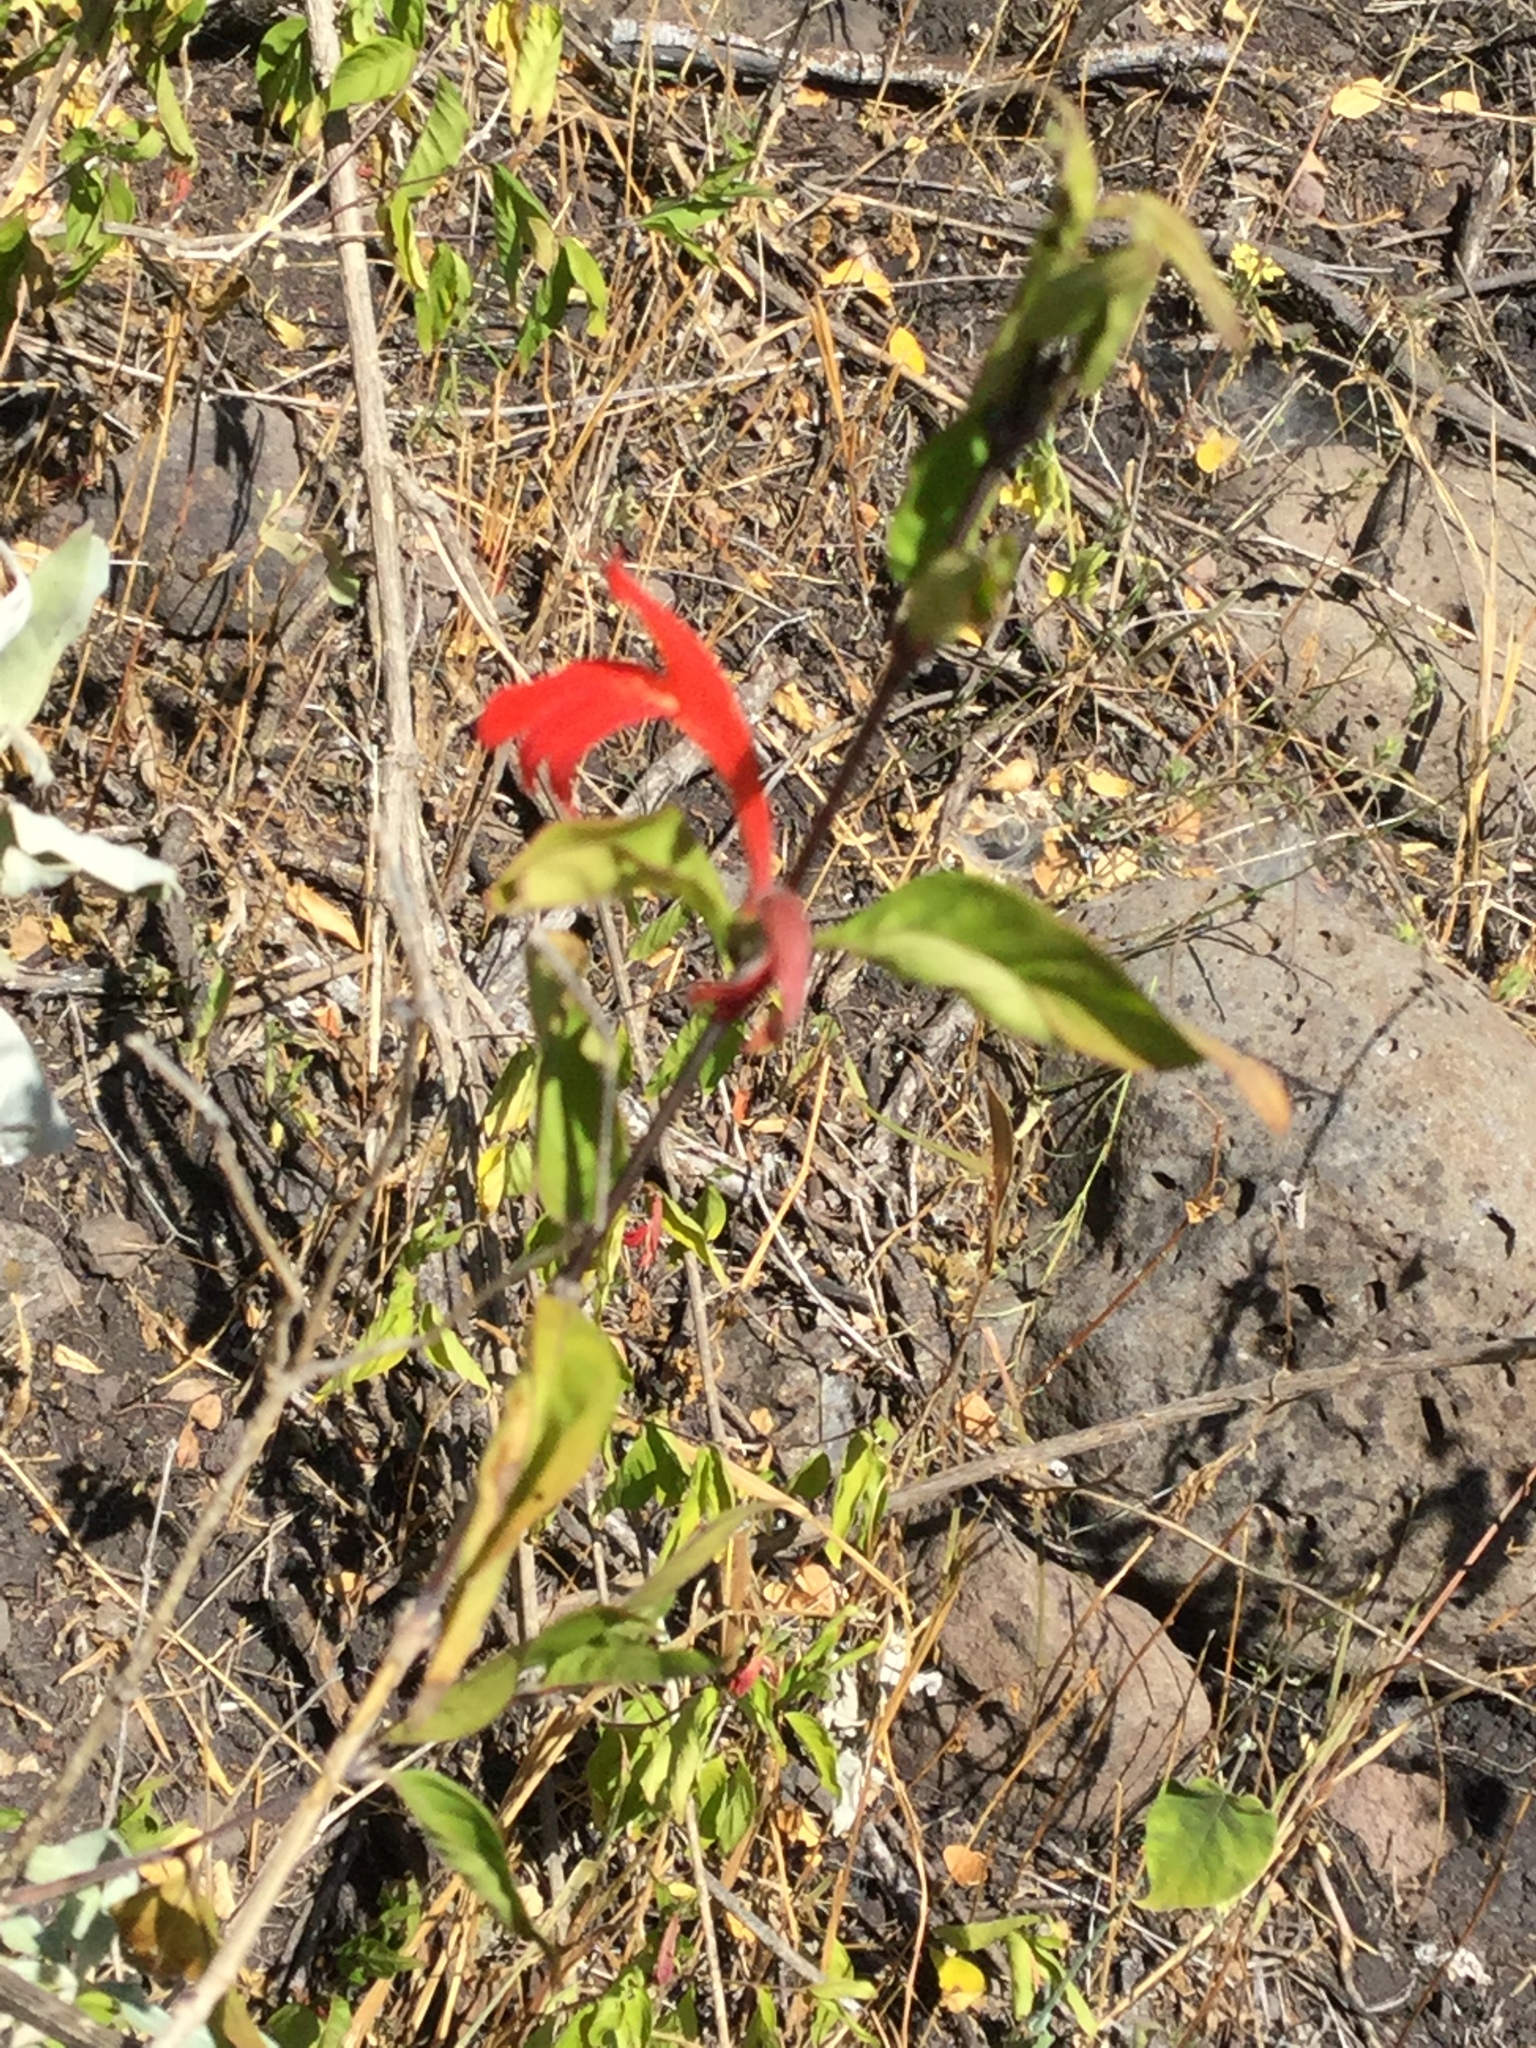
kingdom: Plantae
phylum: Tracheophyta
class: Magnoliopsida
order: Lamiales
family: Acanthaceae
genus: Dianthera
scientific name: Dianthera candicans
